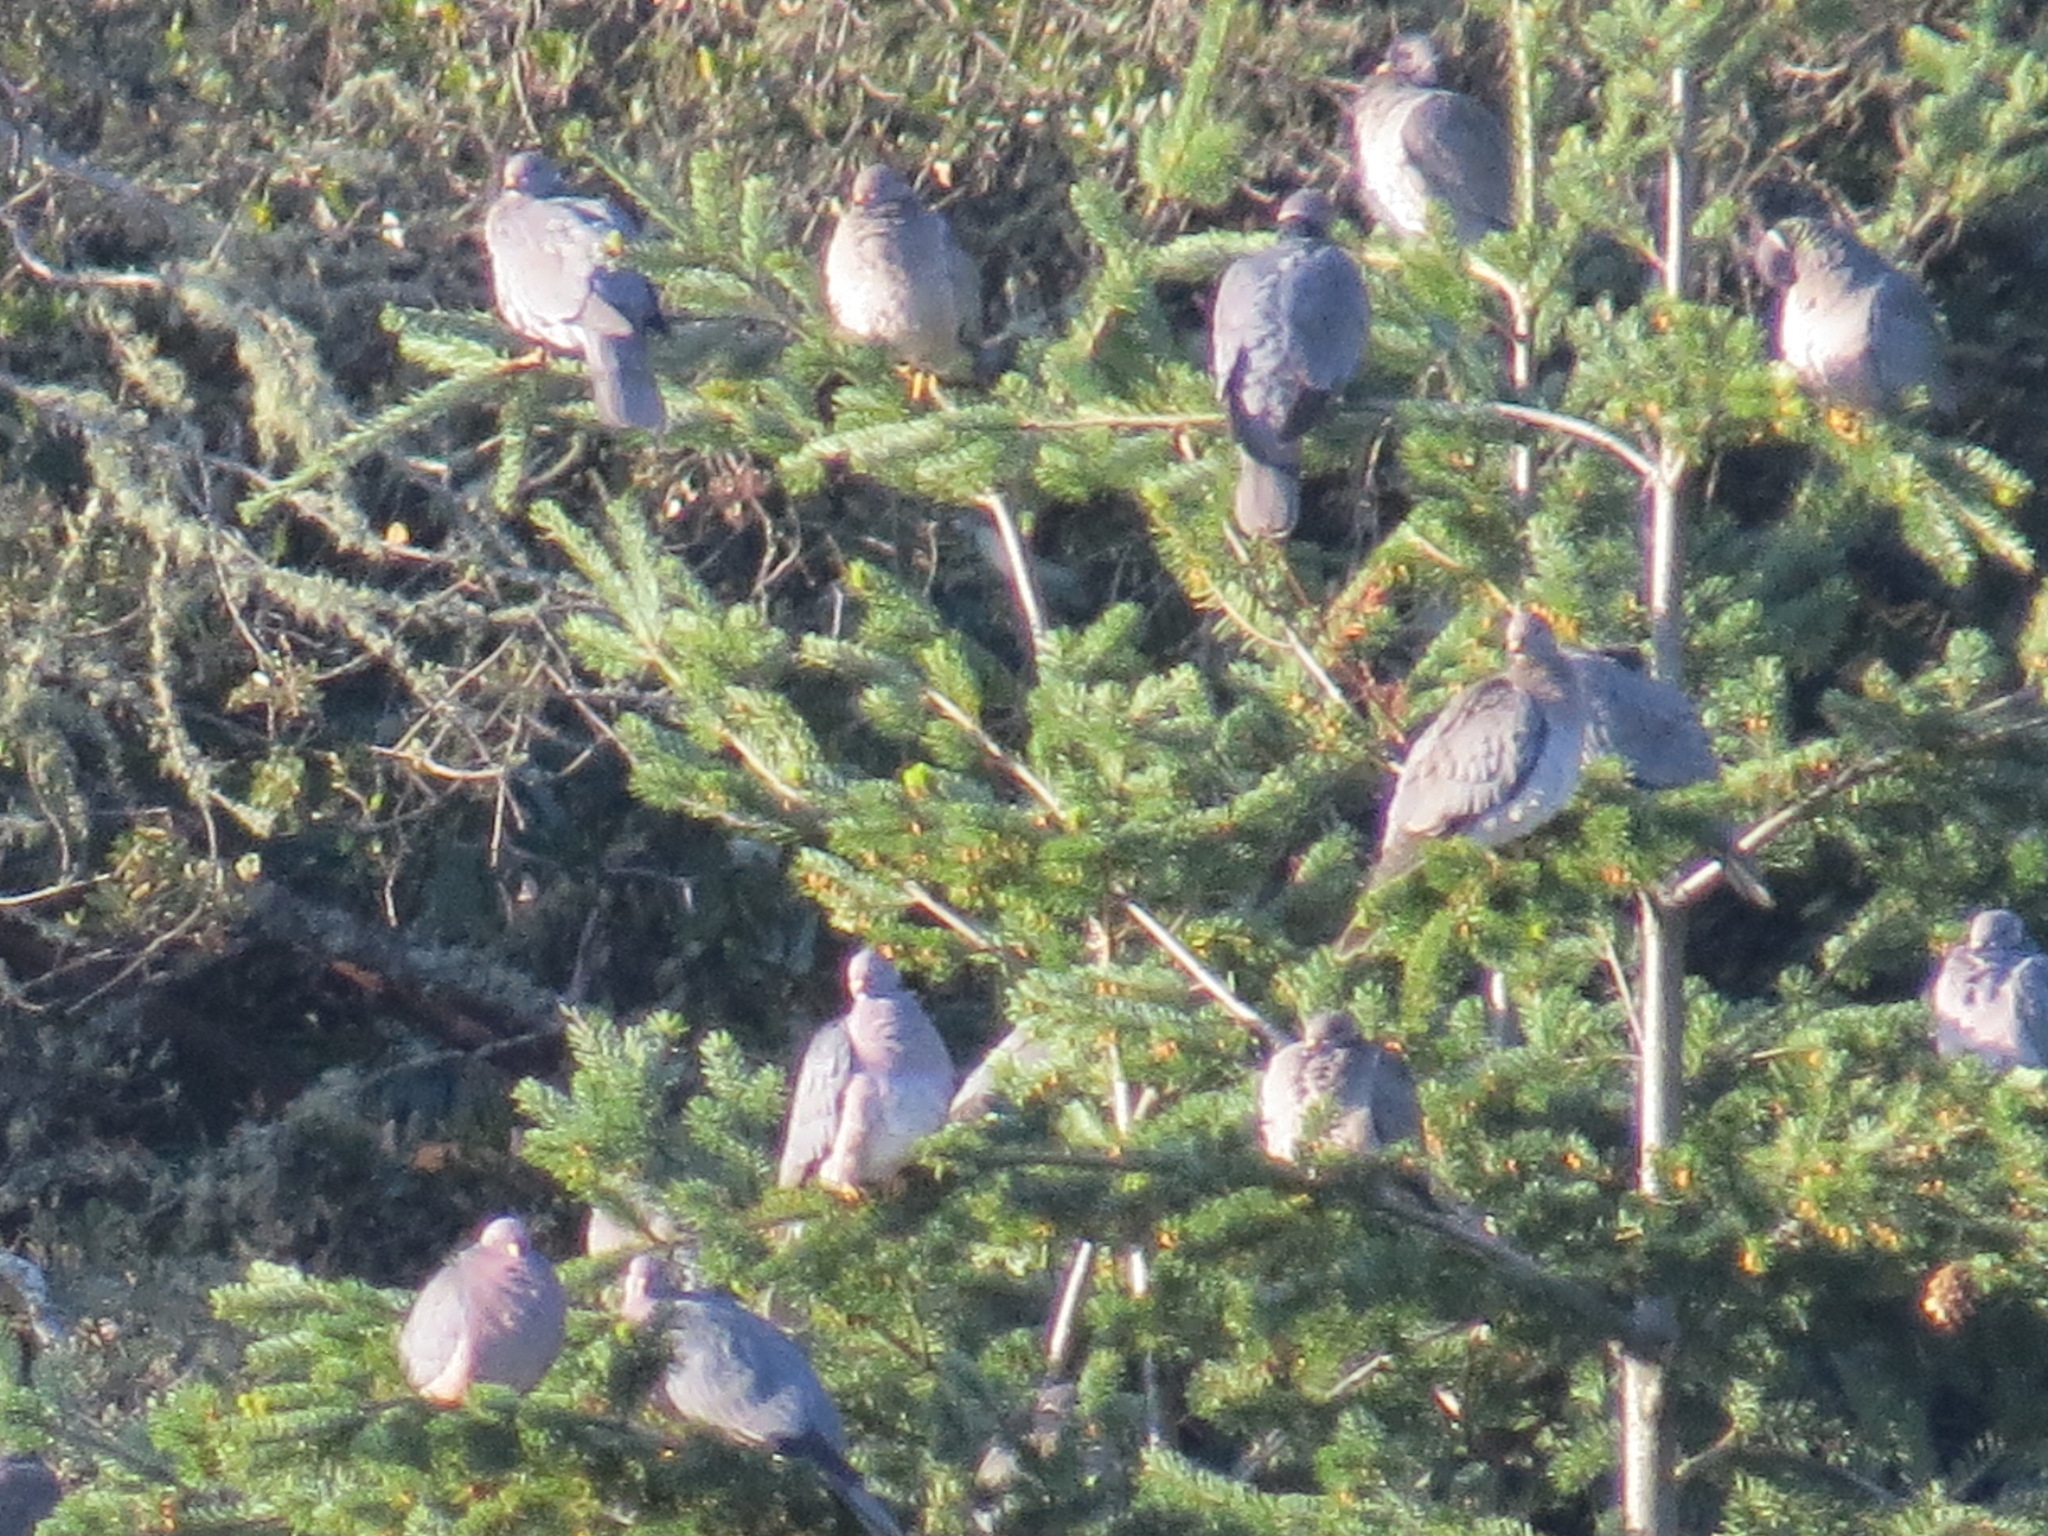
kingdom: Animalia
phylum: Chordata
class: Aves
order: Columbiformes
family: Columbidae
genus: Patagioenas
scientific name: Patagioenas fasciata
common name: Band-tailed pigeon
